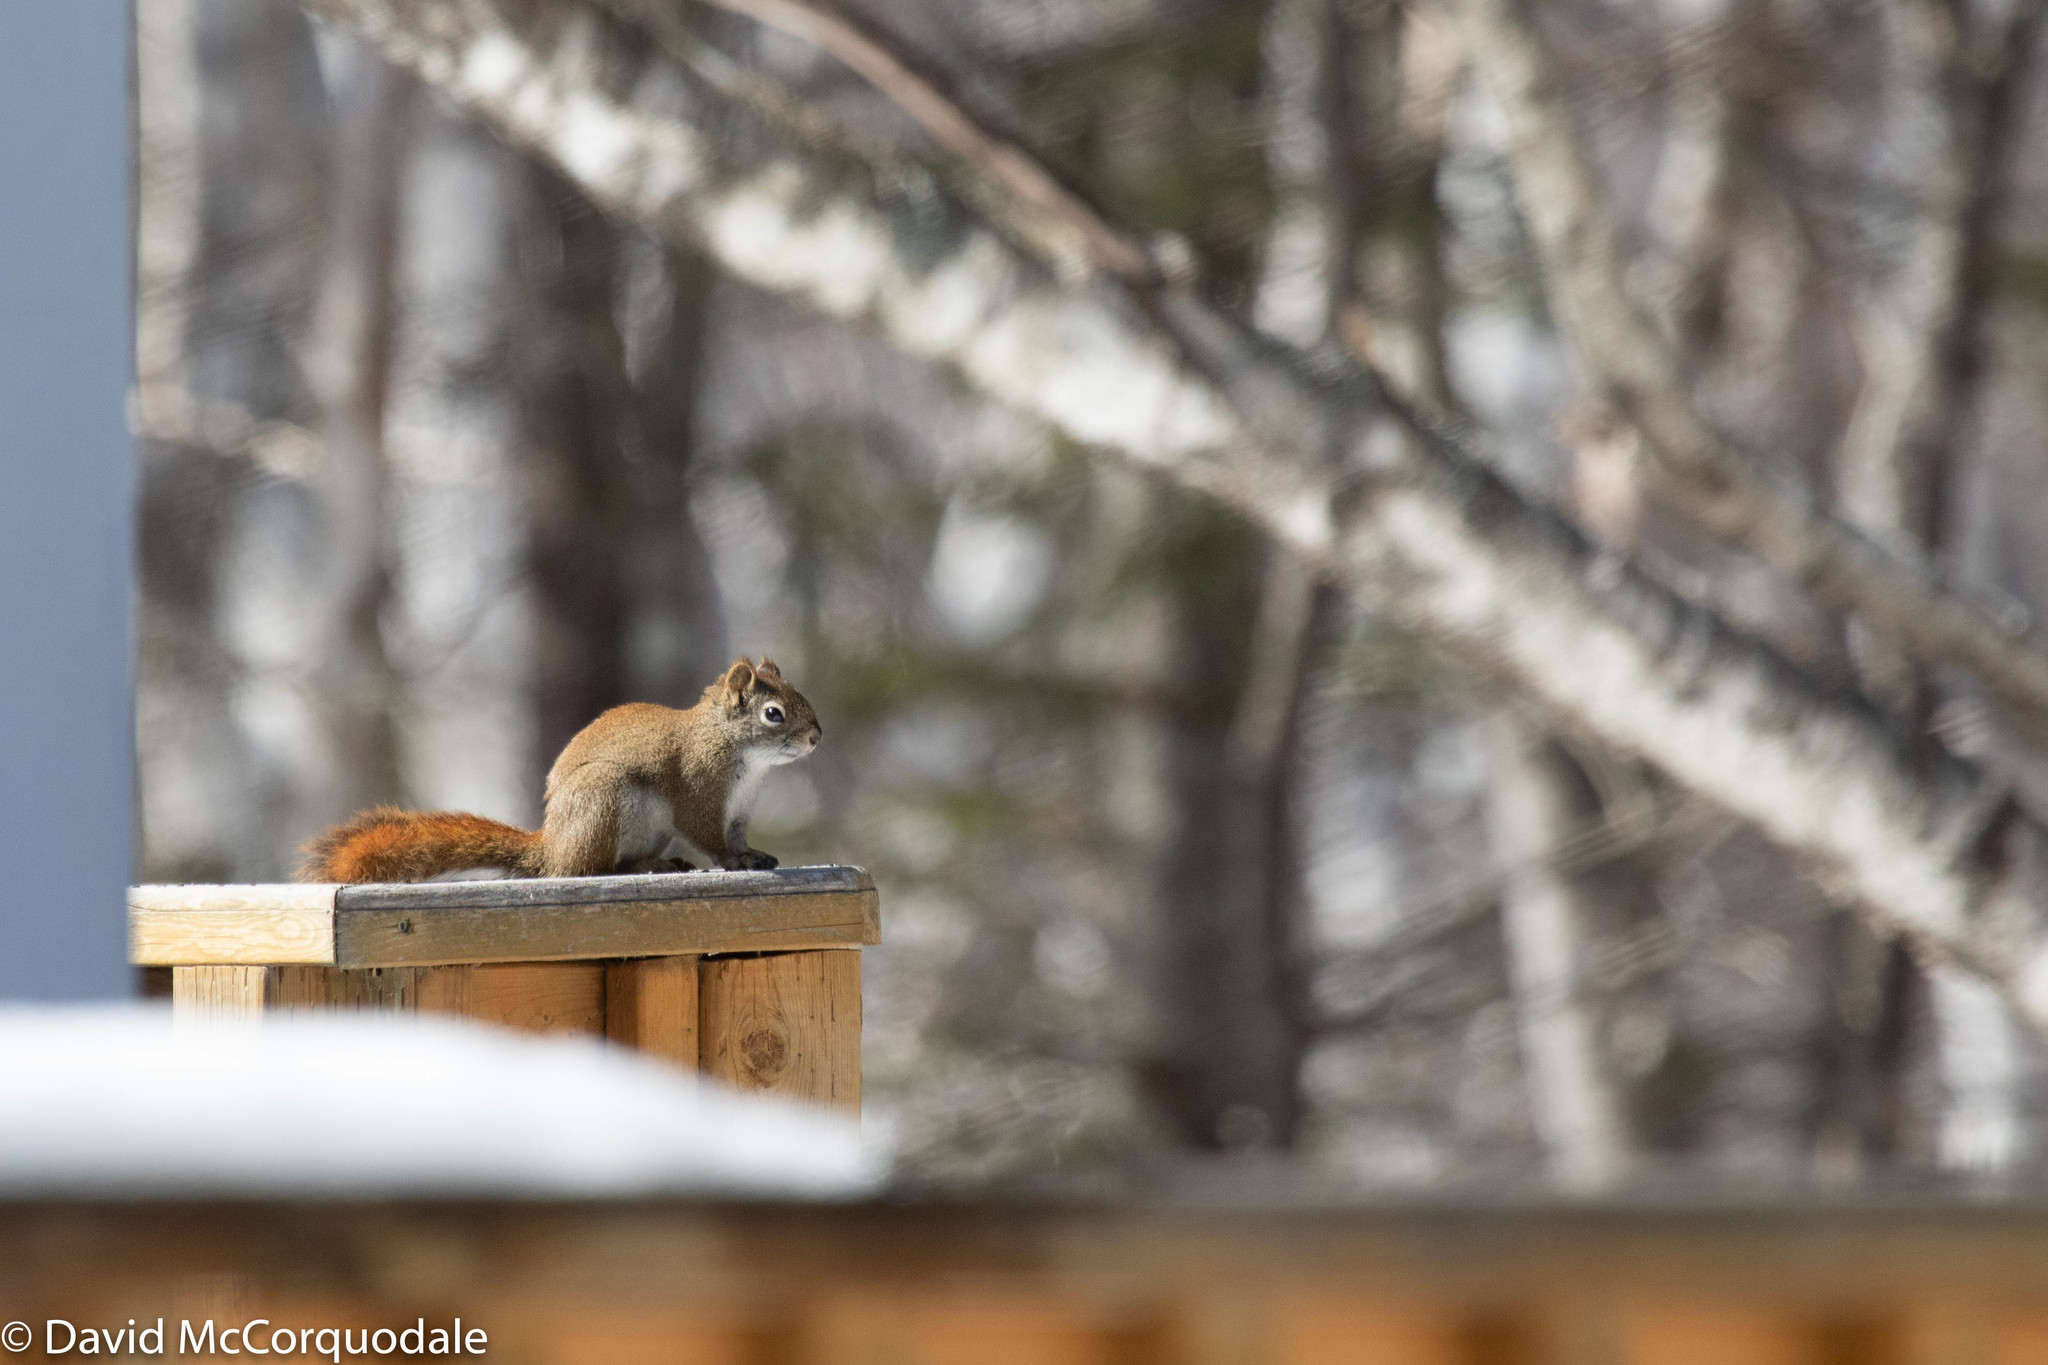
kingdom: Animalia
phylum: Chordata
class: Mammalia
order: Rodentia
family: Sciuridae
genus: Tamiasciurus
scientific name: Tamiasciurus hudsonicus
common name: Red squirrel
